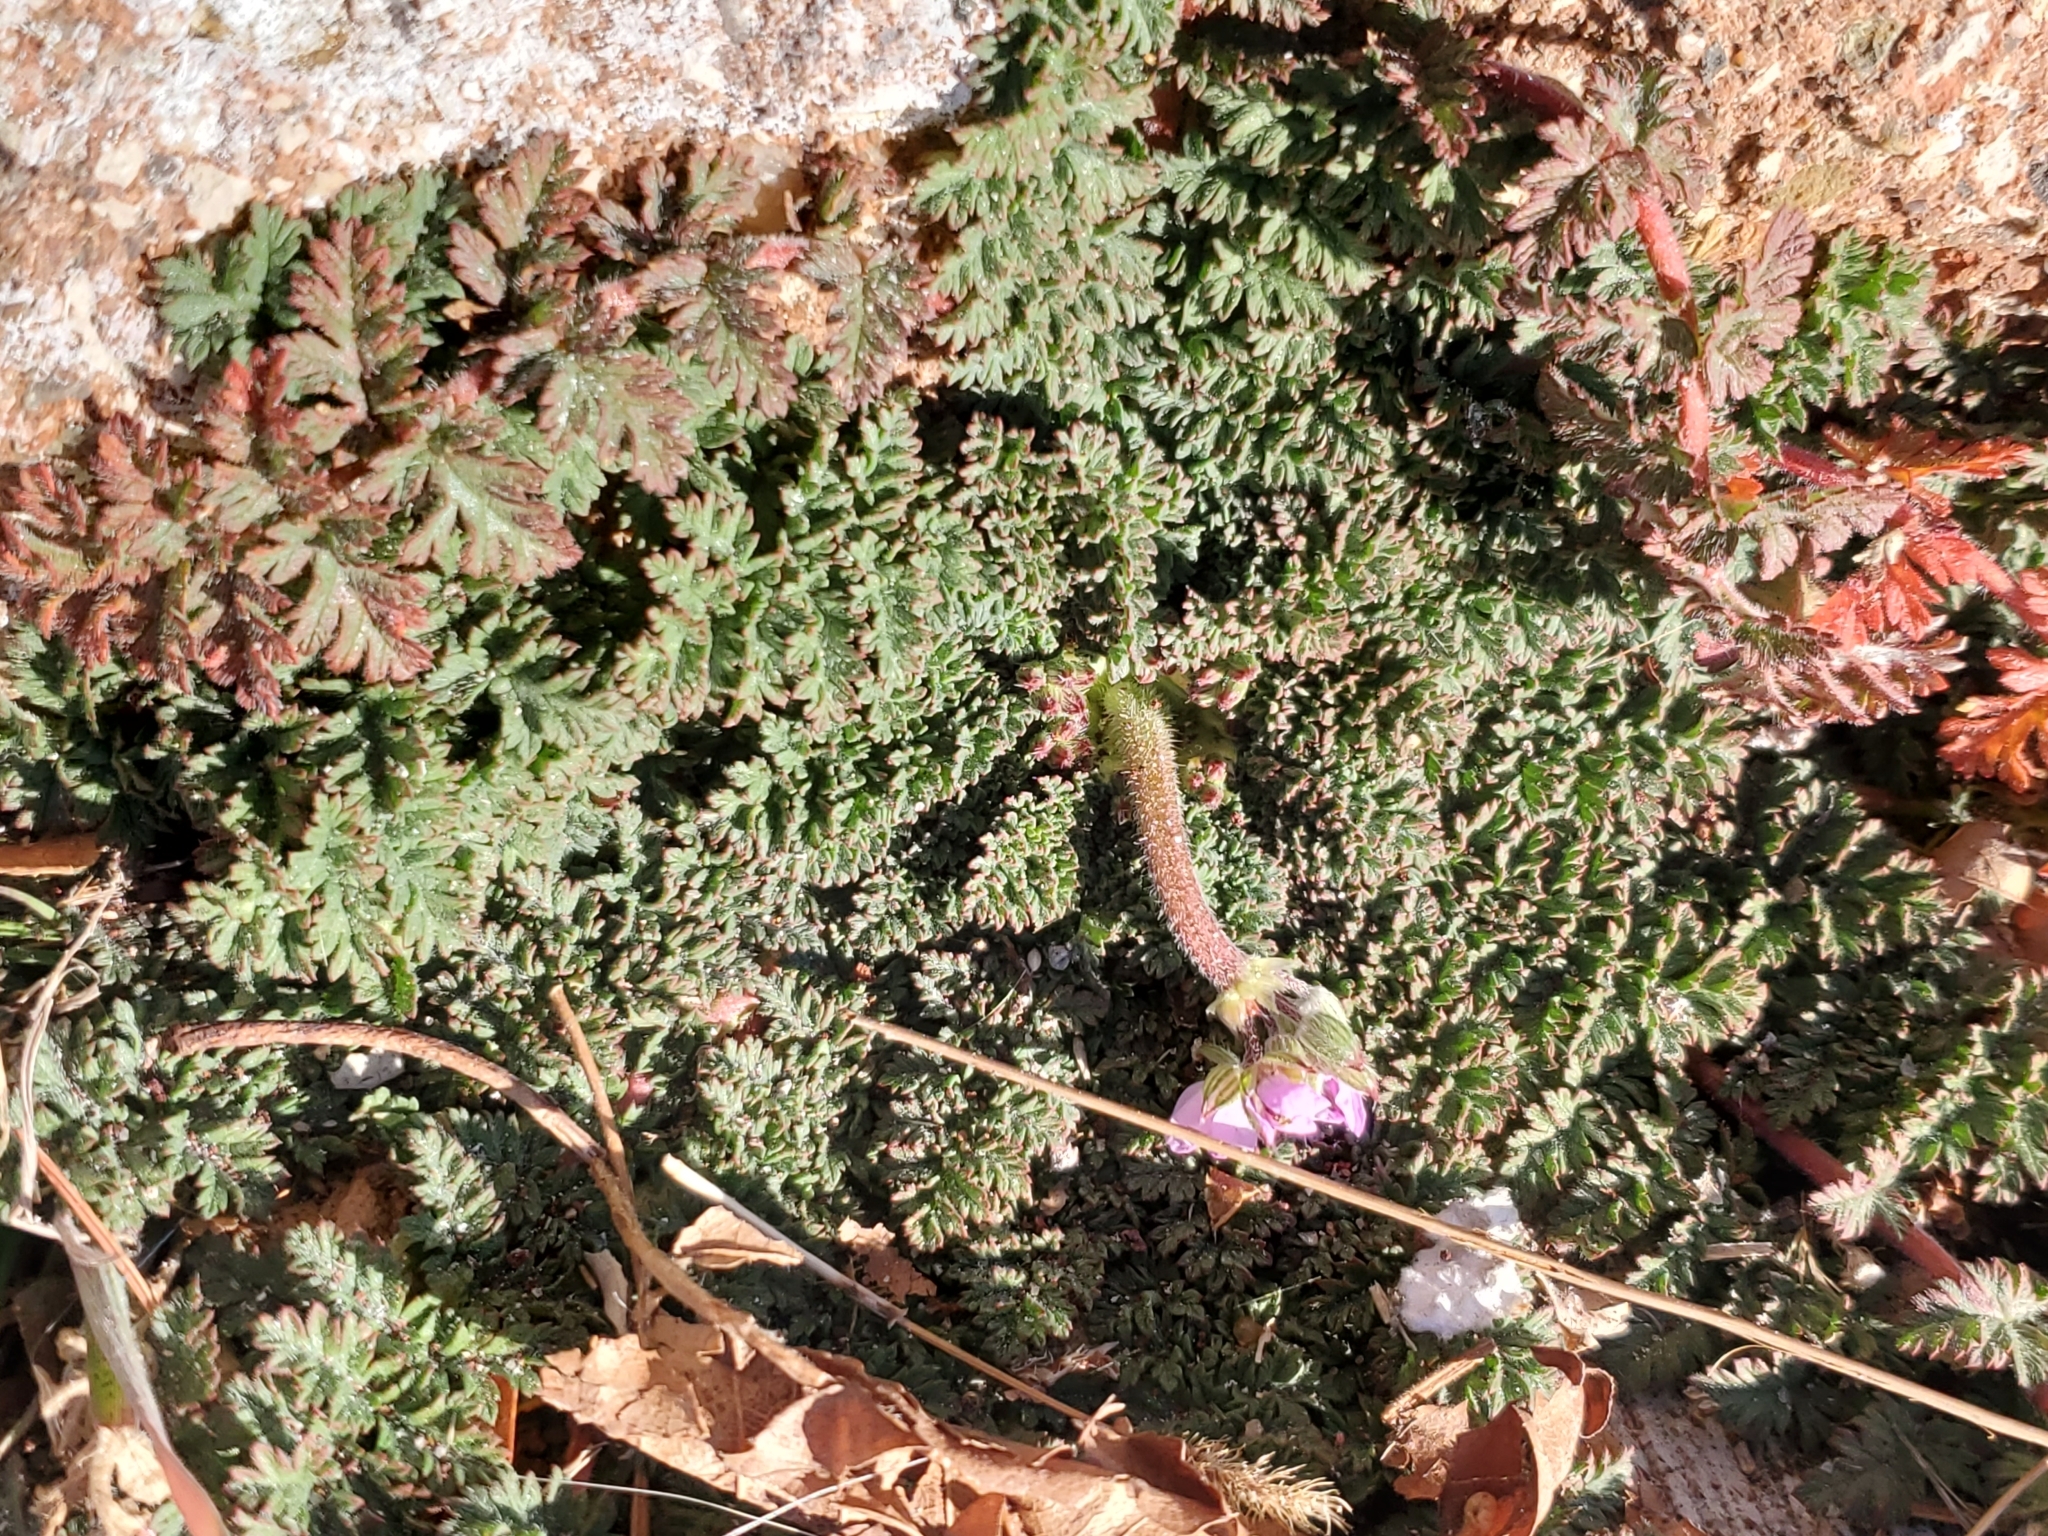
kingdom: Plantae
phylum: Tracheophyta
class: Magnoliopsida
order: Geraniales
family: Geraniaceae
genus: Erodium
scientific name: Erodium cicutarium
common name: Common stork's-bill
